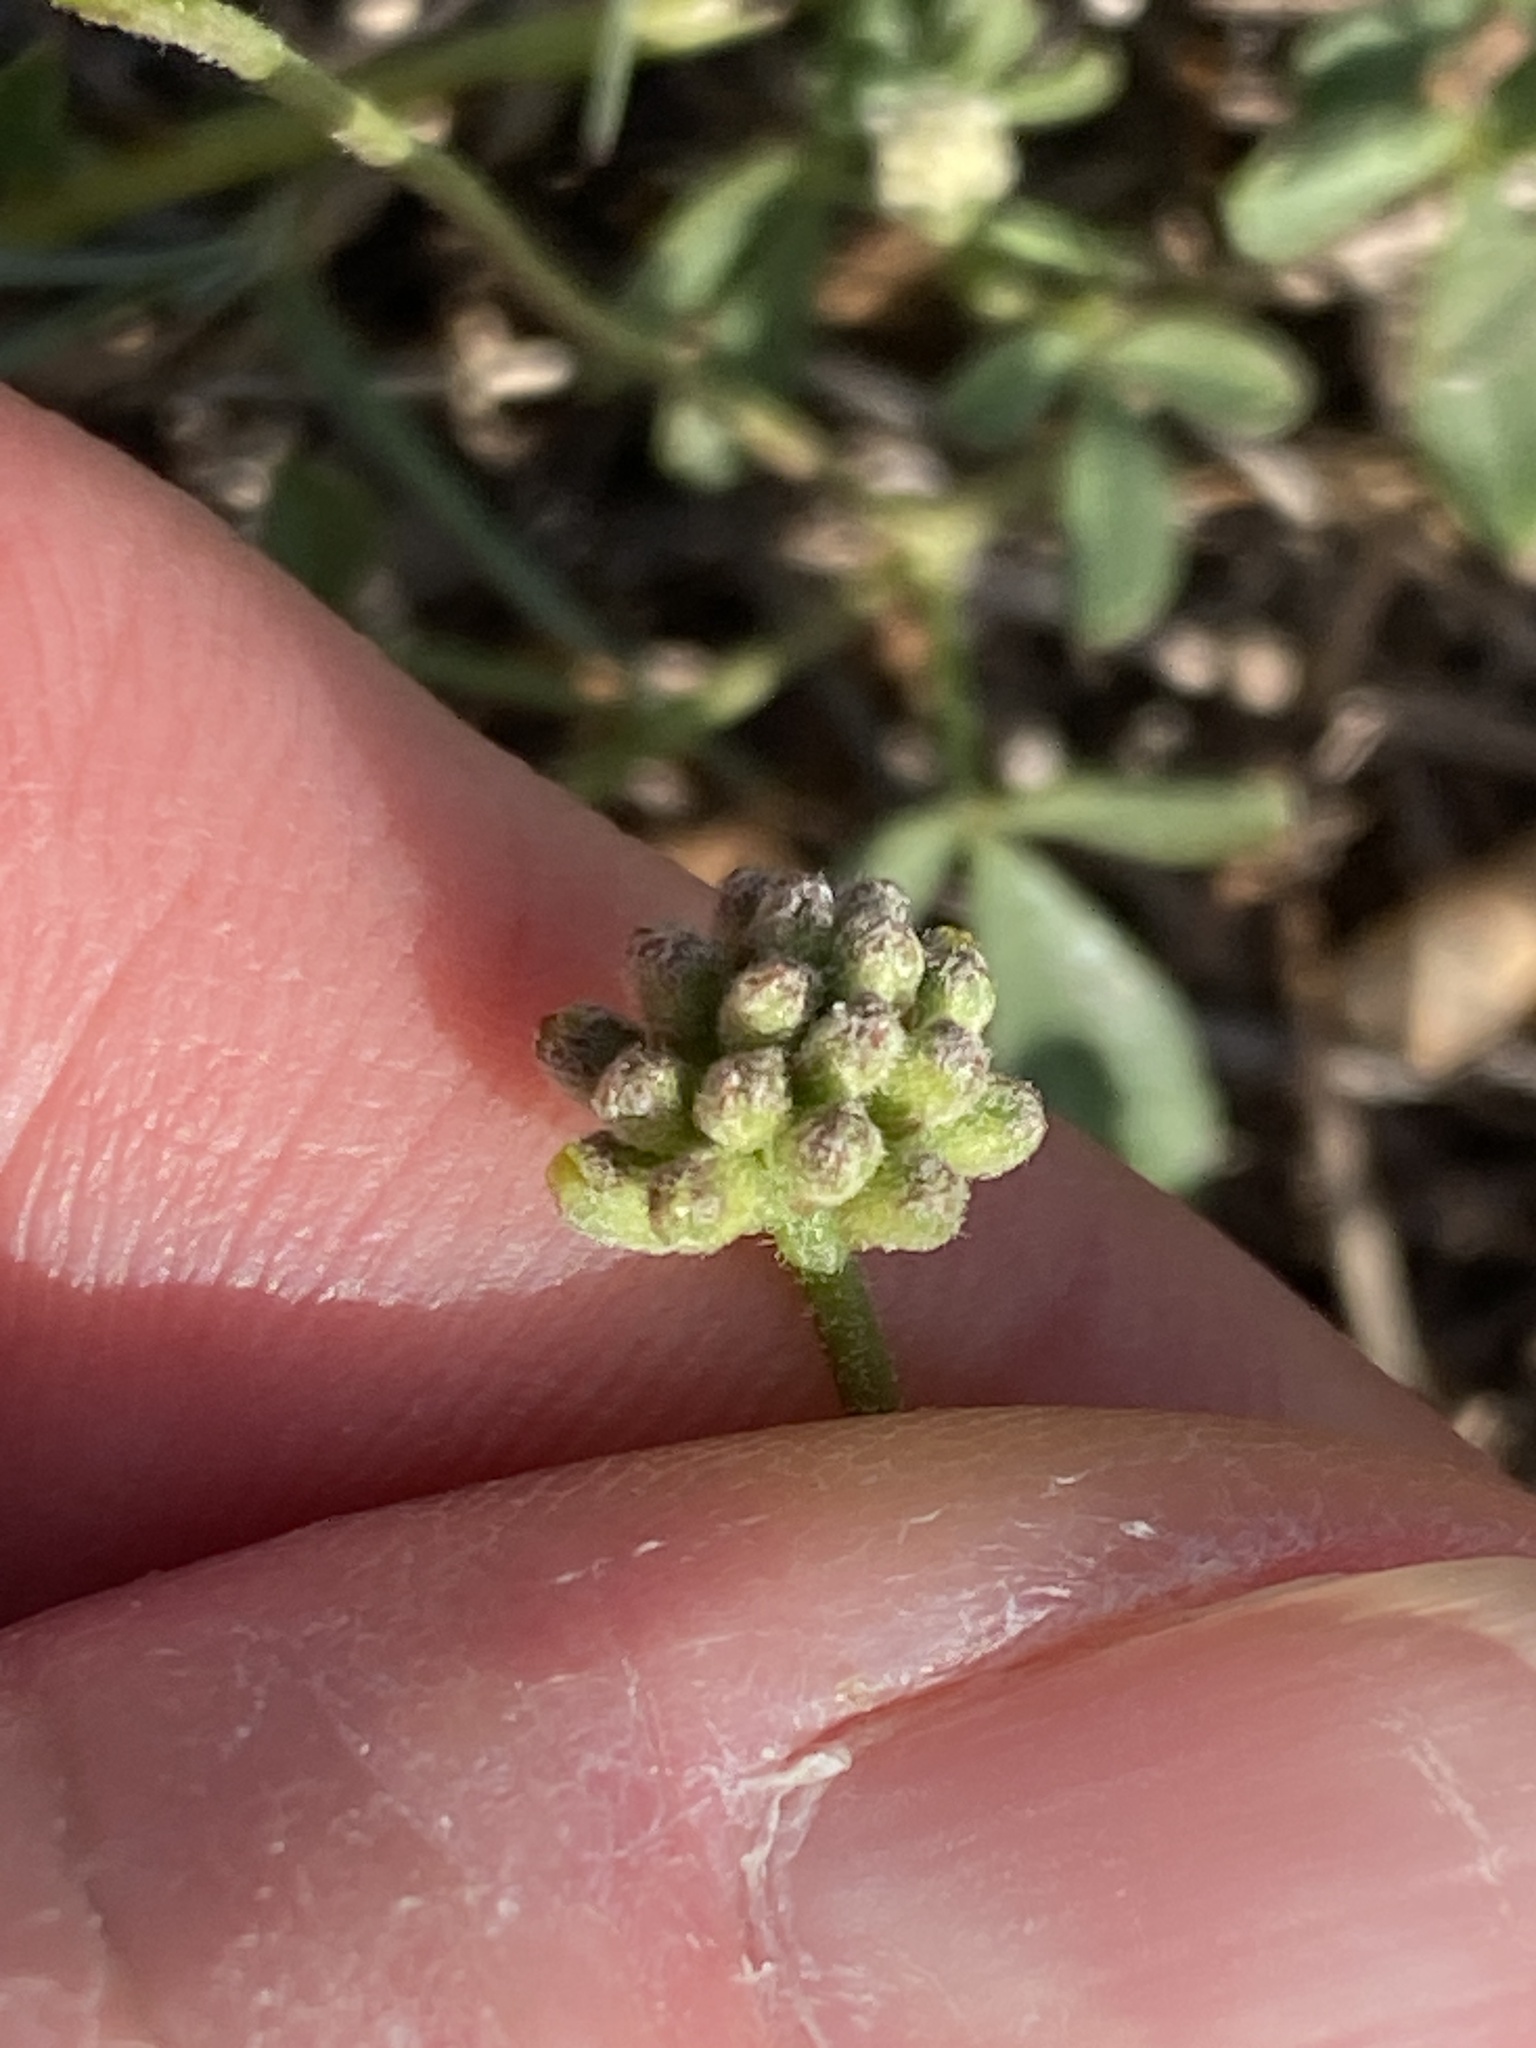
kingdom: Plantae
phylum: Tracheophyta
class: Magnoliopsida
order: Fabales
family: Fabaceae
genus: Listia
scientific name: Listia bainesii
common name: Lotononis
